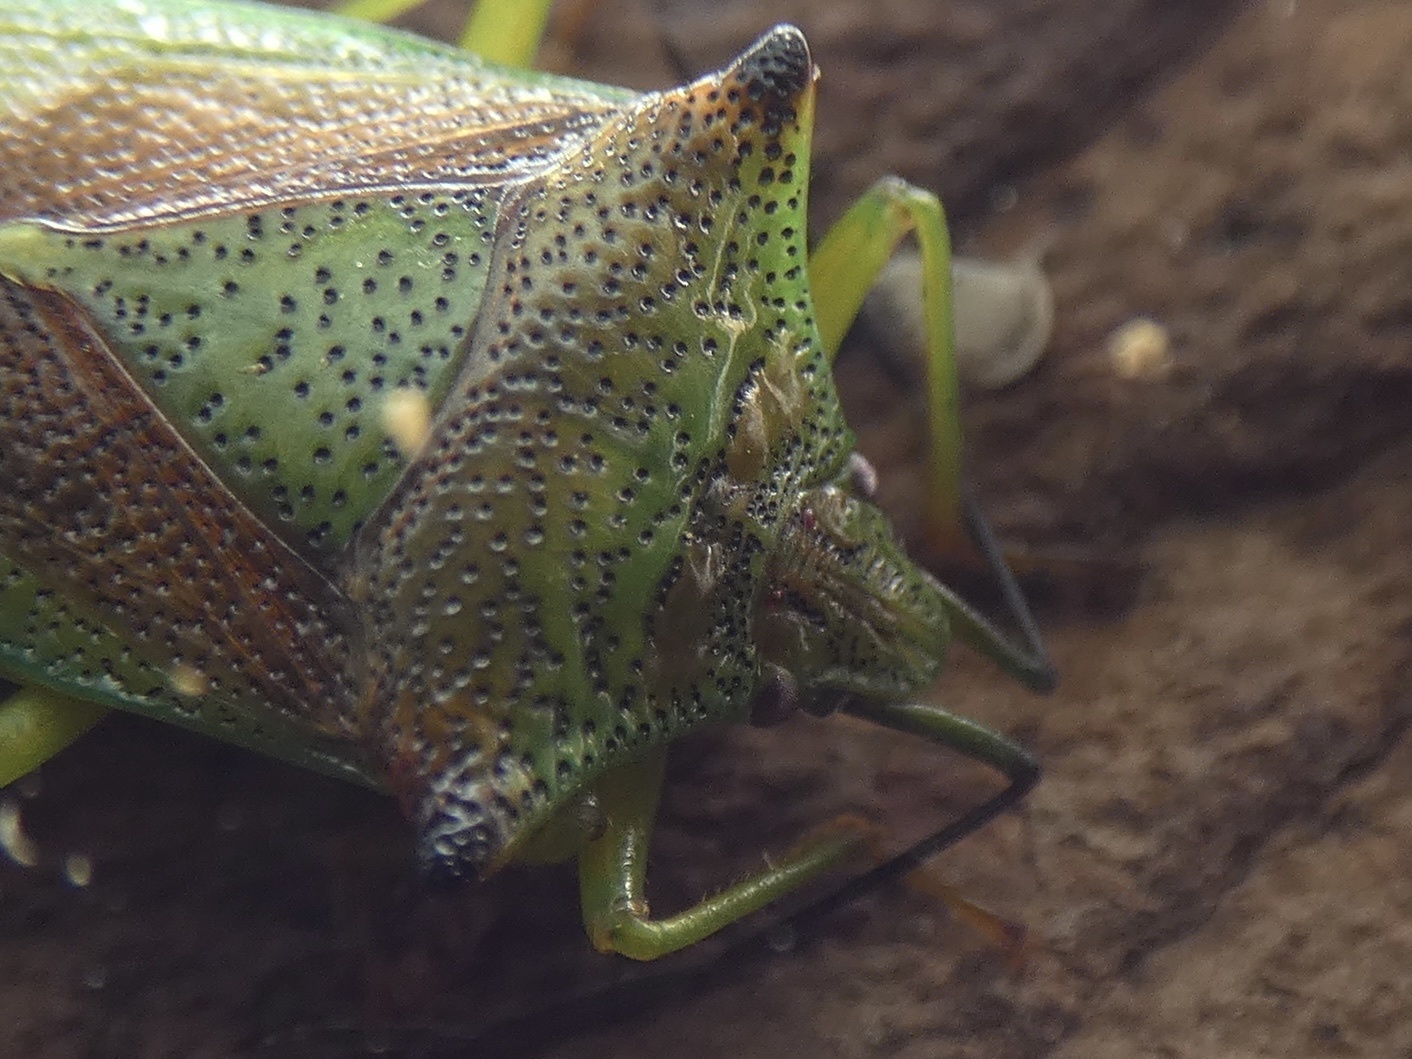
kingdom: Animalia
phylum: Arthropoda
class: Insecta
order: Hemiptera
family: Acanthosomatidae
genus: Acanthosoma
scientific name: Acanthosoma haemorrhoidale
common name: Hawthorn shieldbug
